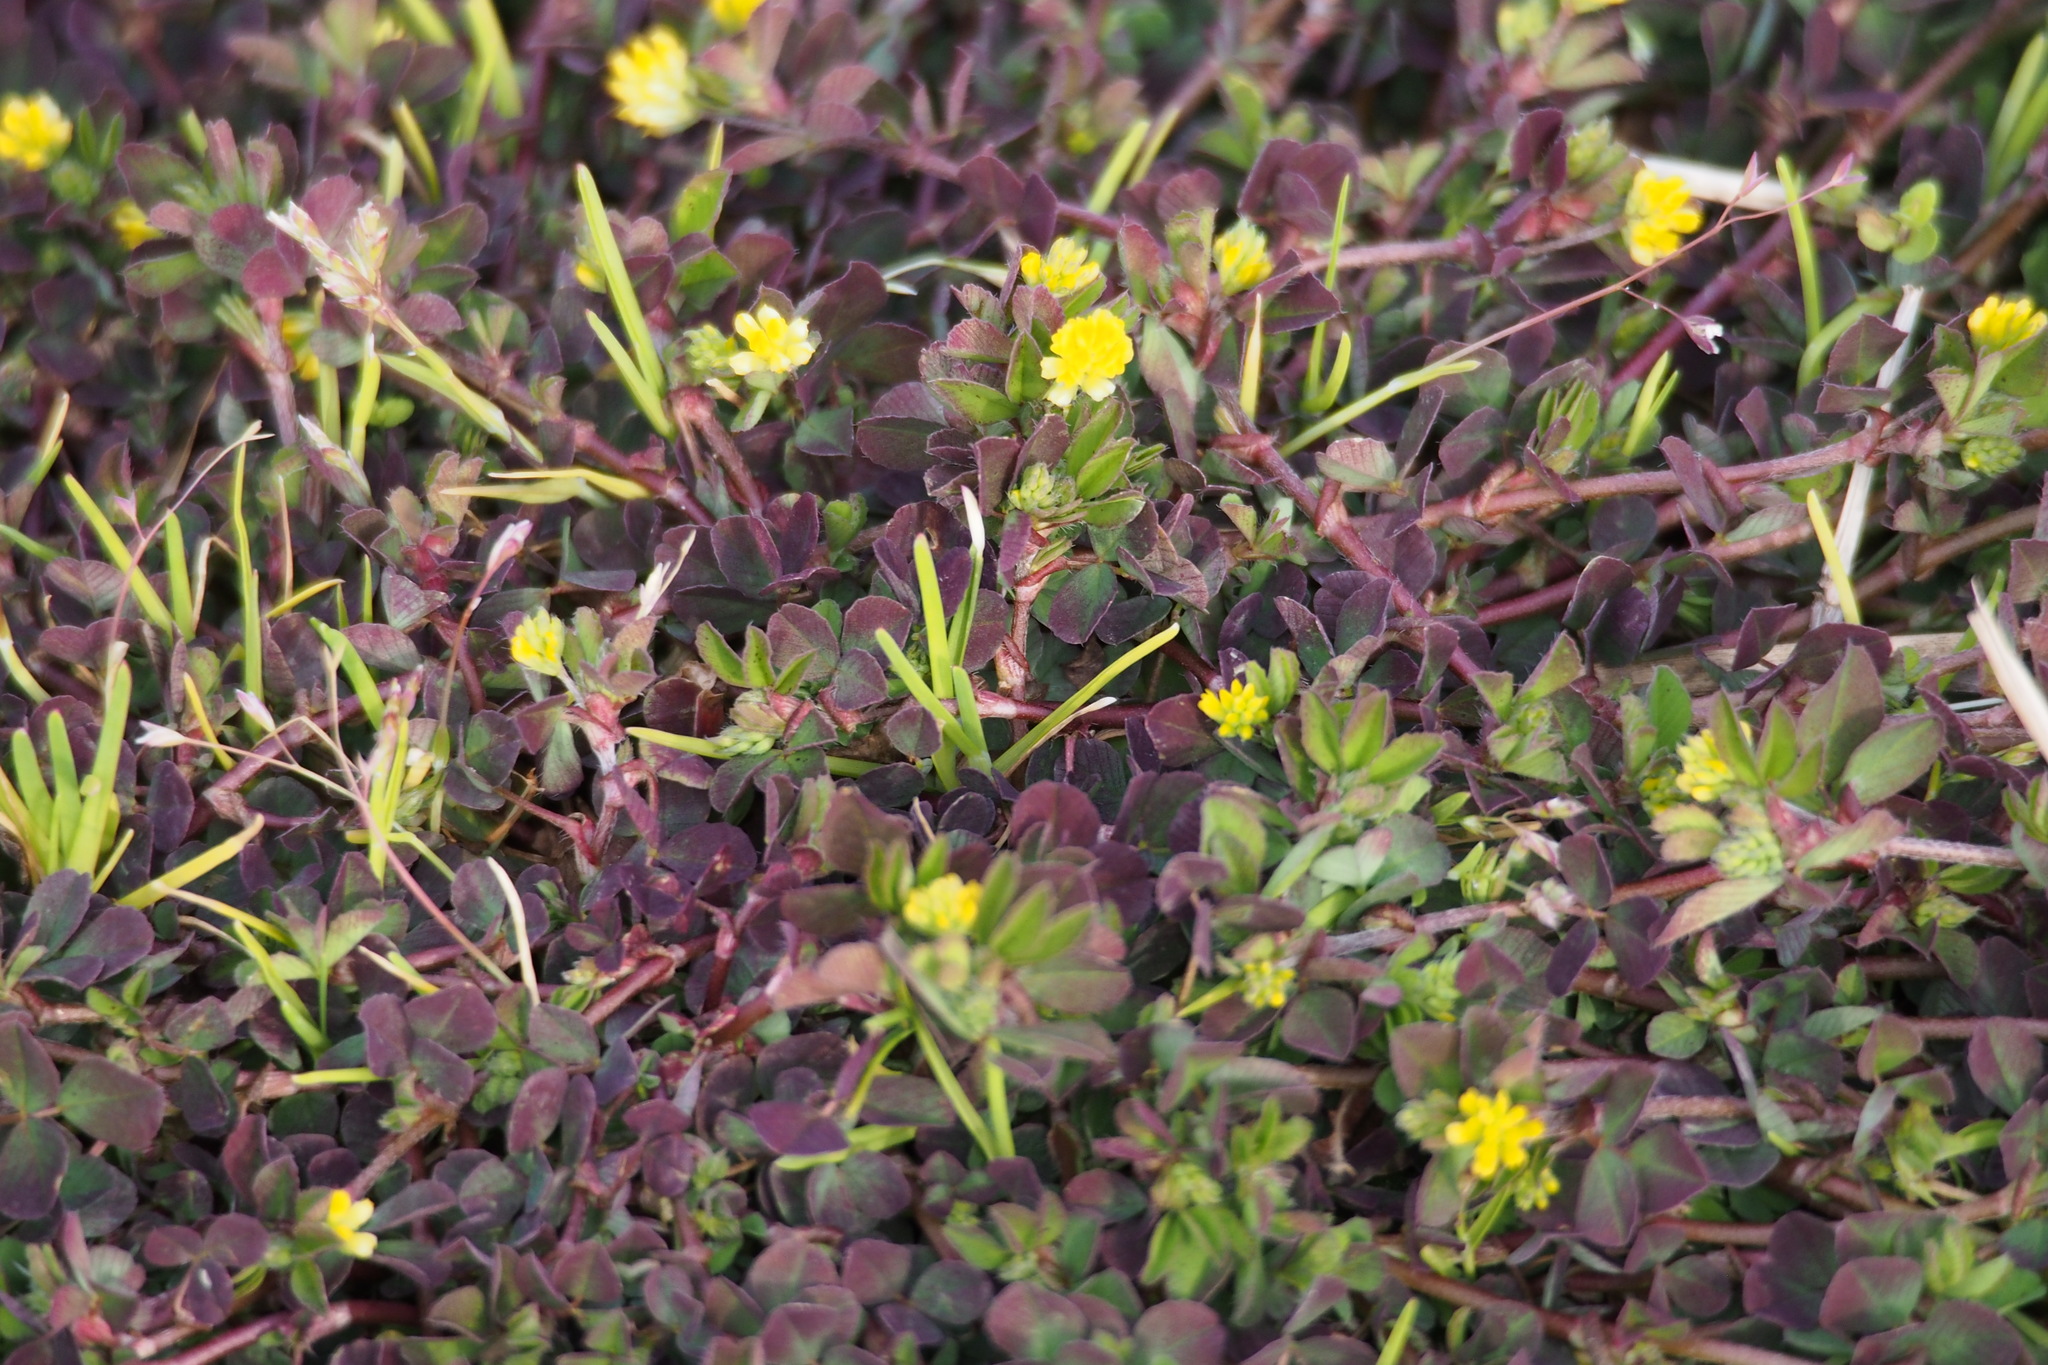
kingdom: Plantae
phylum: Tracheophyta
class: Magnoliopsida
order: Fabales
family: Fabaceae
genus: Trifolium
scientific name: Trifolium dubium
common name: Suckling clover
